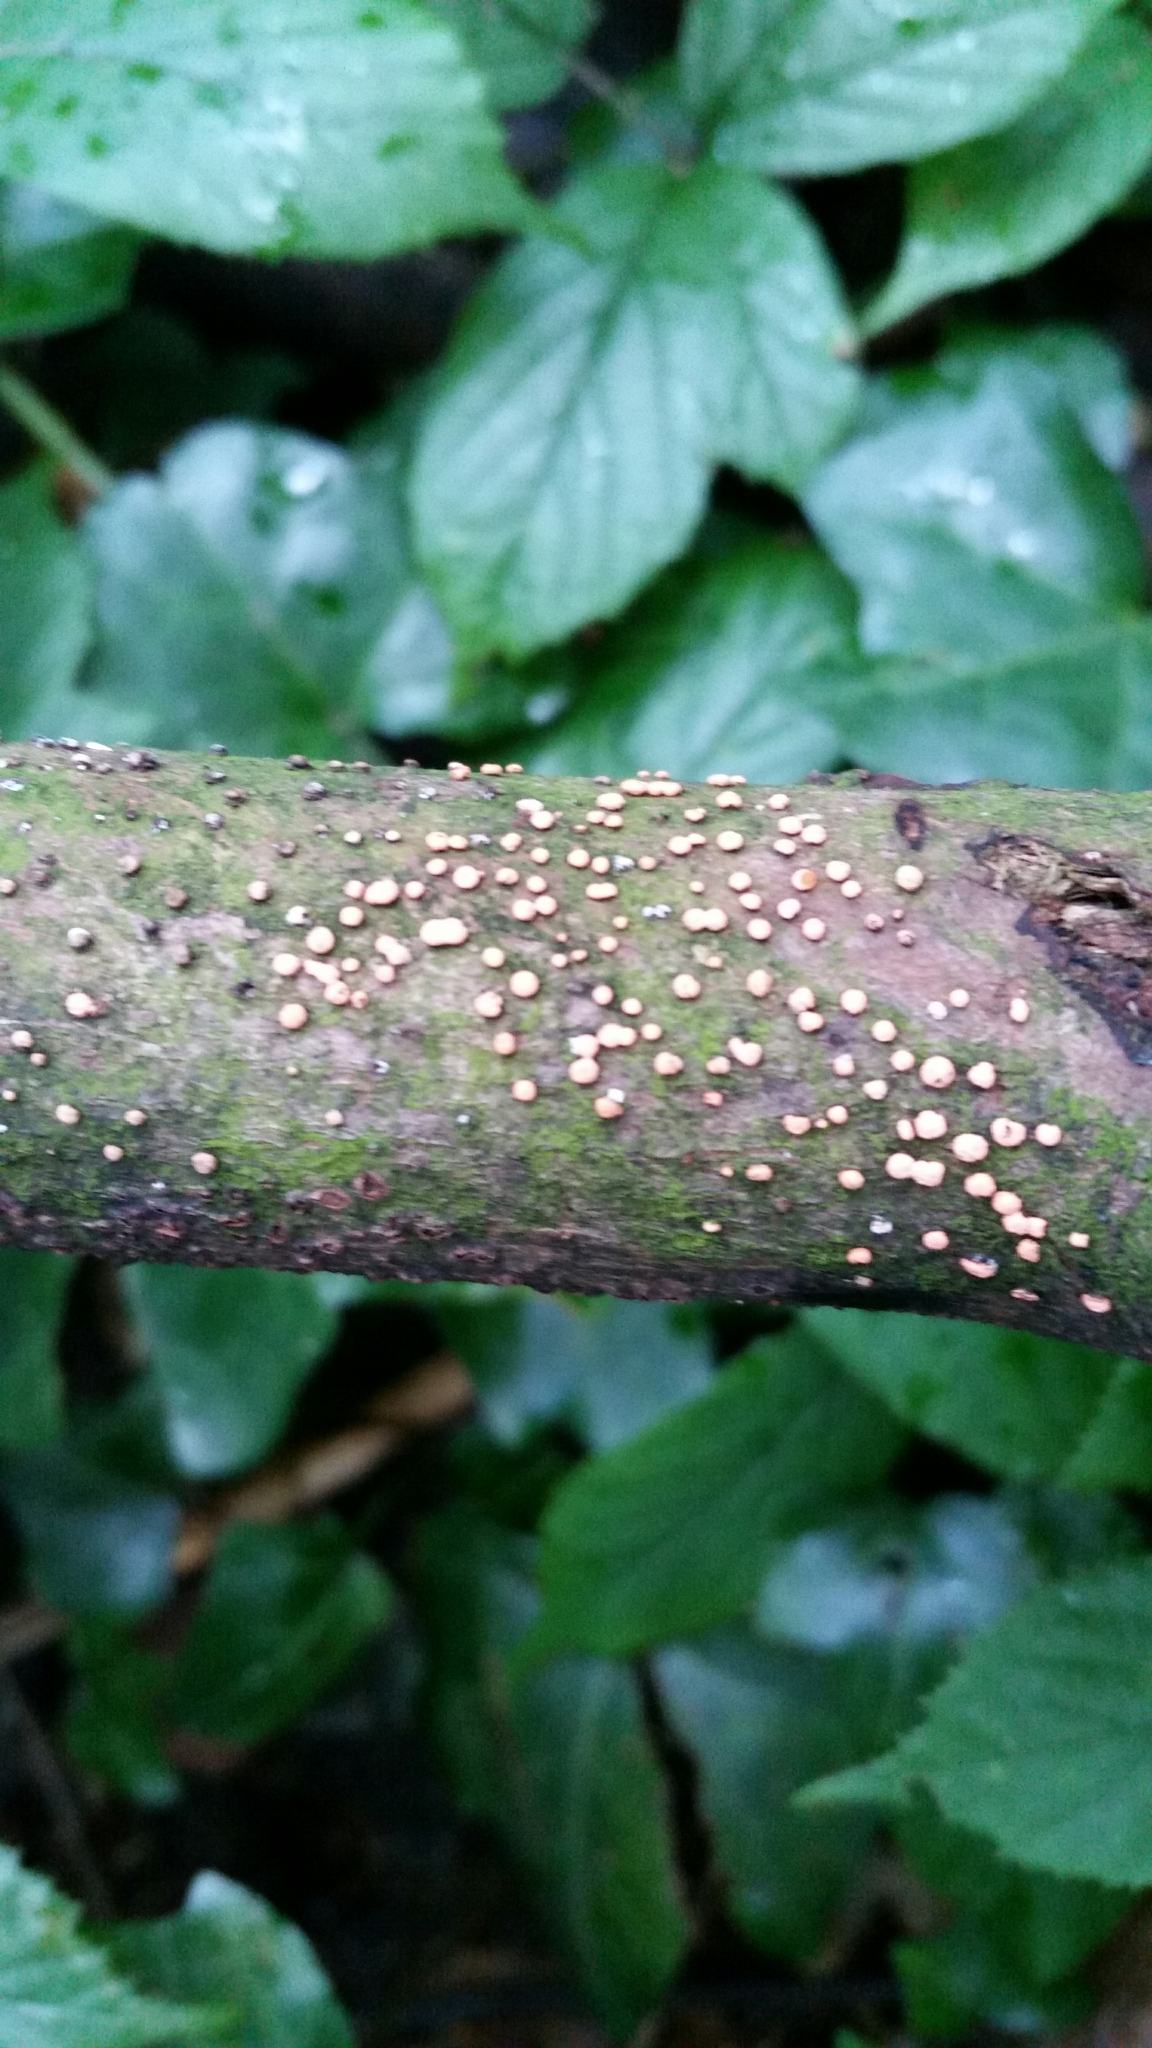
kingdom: Fungi
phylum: Ascomycota
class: Sordariomycetes
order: Hypocreales
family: Nectriaceae
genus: Nectria
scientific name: Nectria cinnabarina
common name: Coral spot
